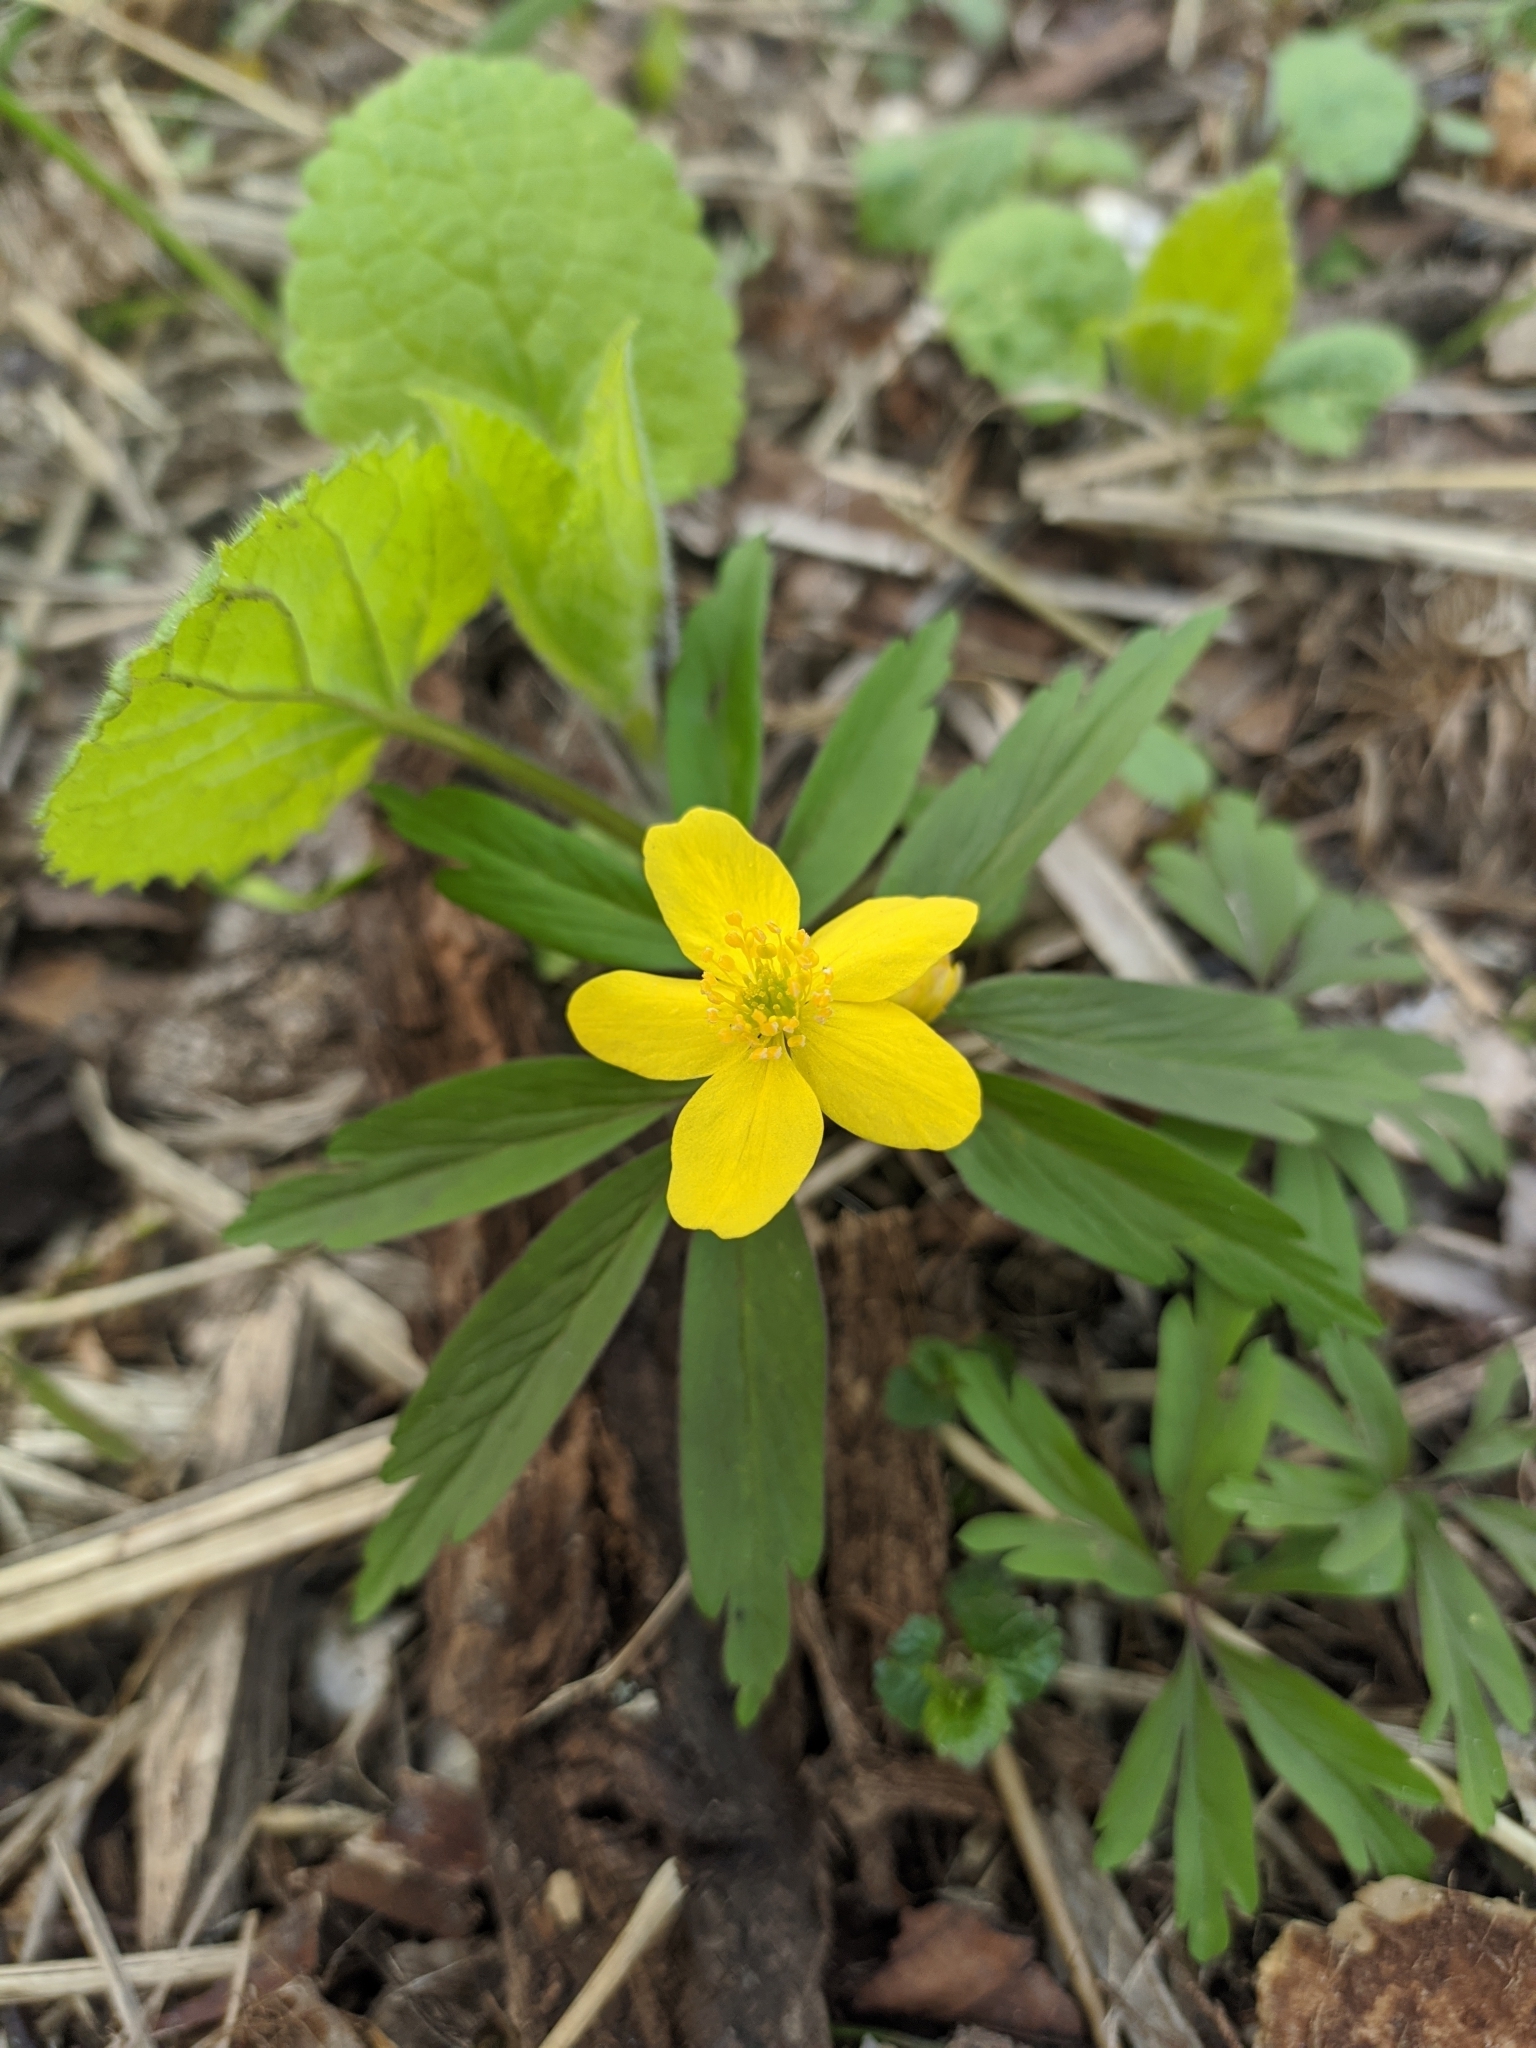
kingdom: Plantae
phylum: Tracheophyta
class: Magnoliopsida
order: Ranunculales
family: Ranunculaceae
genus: Anemone
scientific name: Anemone ranunculoides
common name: Yellow anemone
